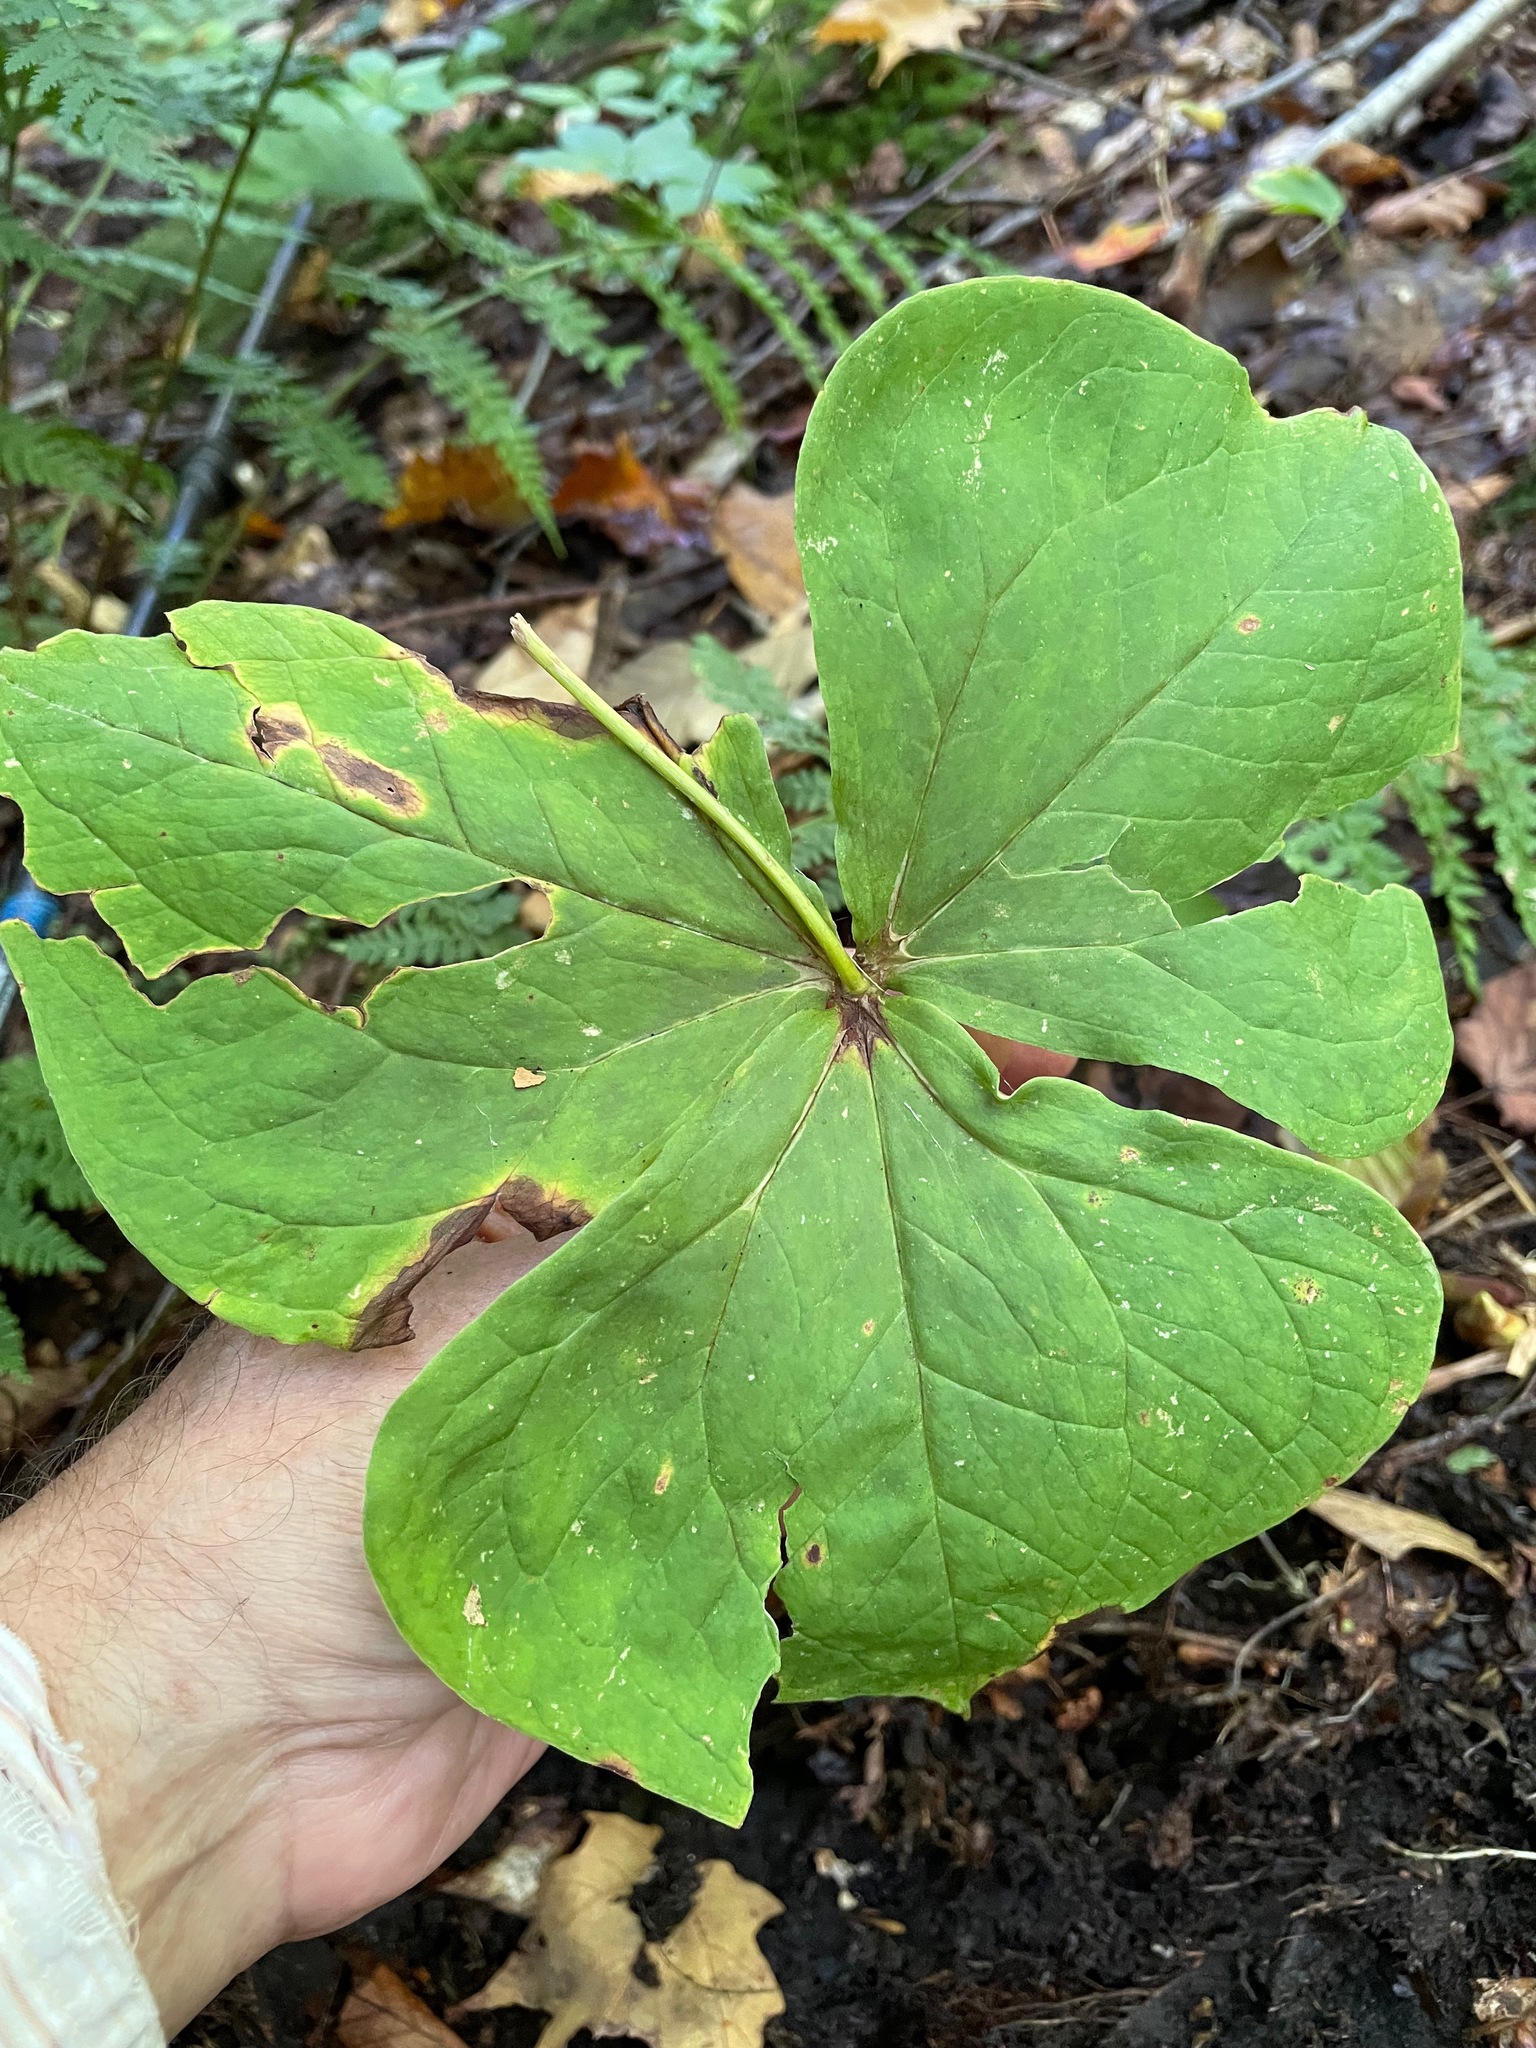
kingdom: Plantae
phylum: Tracheophyta
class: Liliopsida
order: Liliales
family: Melanthiaceae
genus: Trillium
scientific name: Trillium erectum
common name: Purple trillium
